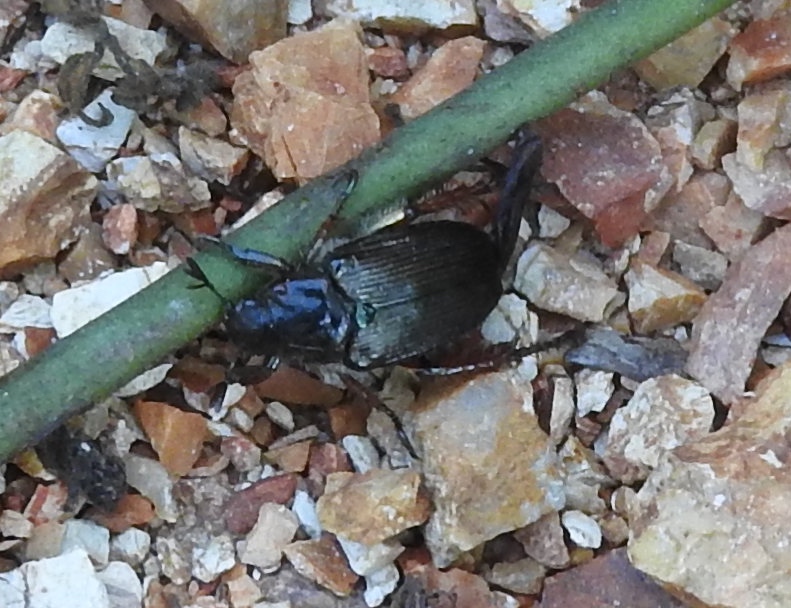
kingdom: Animalia
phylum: Arthropoda
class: Insecta
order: Coleoptera
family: Scarabaeidae
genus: Strigoderma
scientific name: Strigoderma sulcipennis
